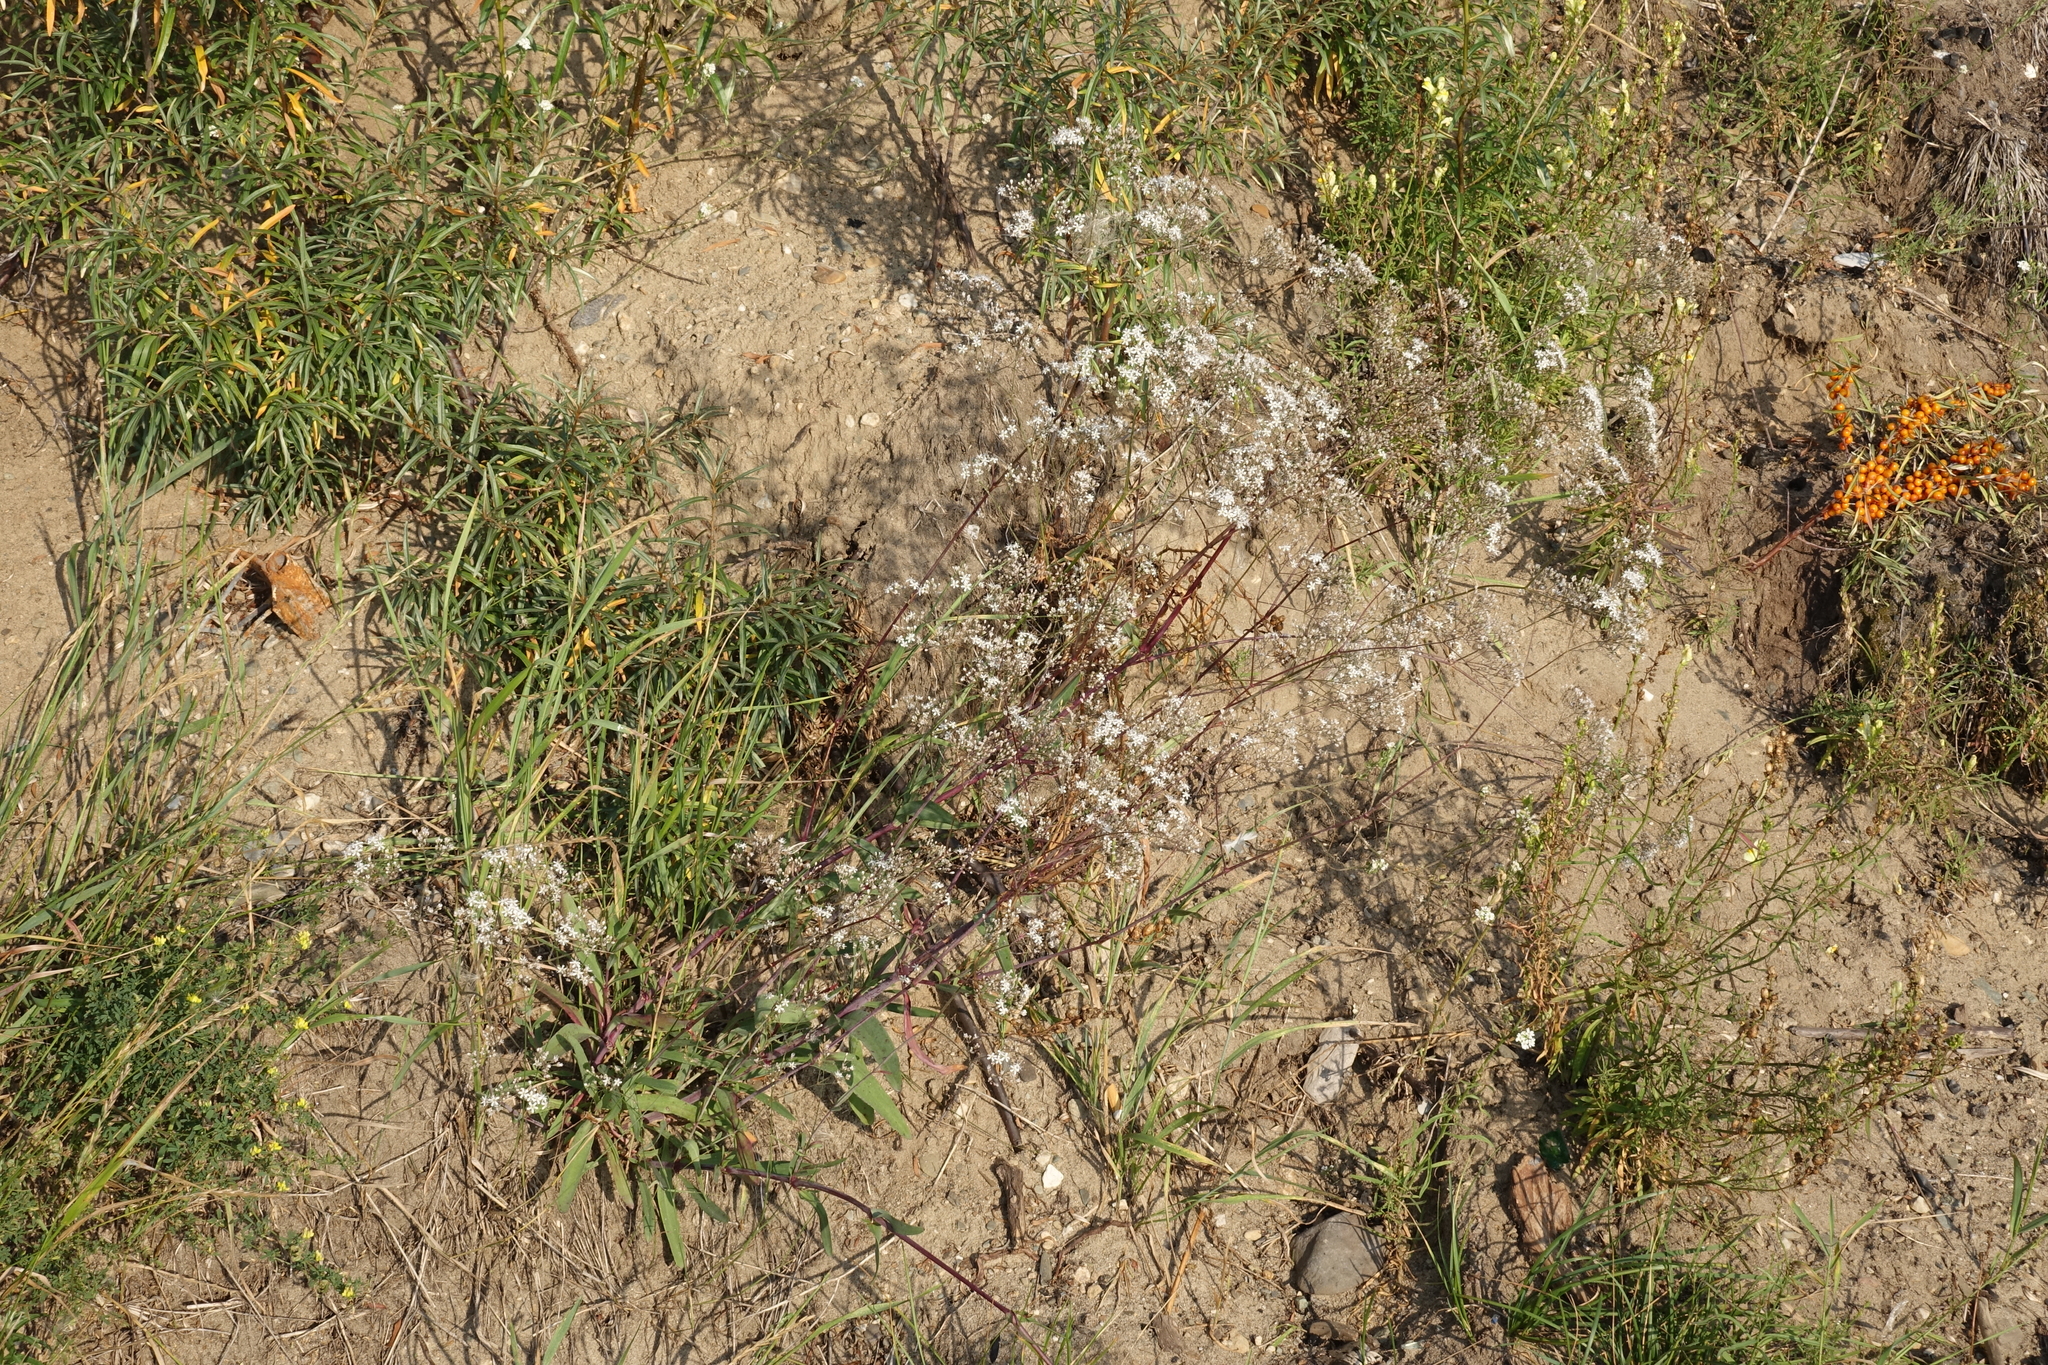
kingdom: Plantae
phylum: Tracheophyta
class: Magnoliopsida
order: Caryophyllales
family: Caryophyllaceae
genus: Gypsophila
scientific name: Gypsophila altissima
